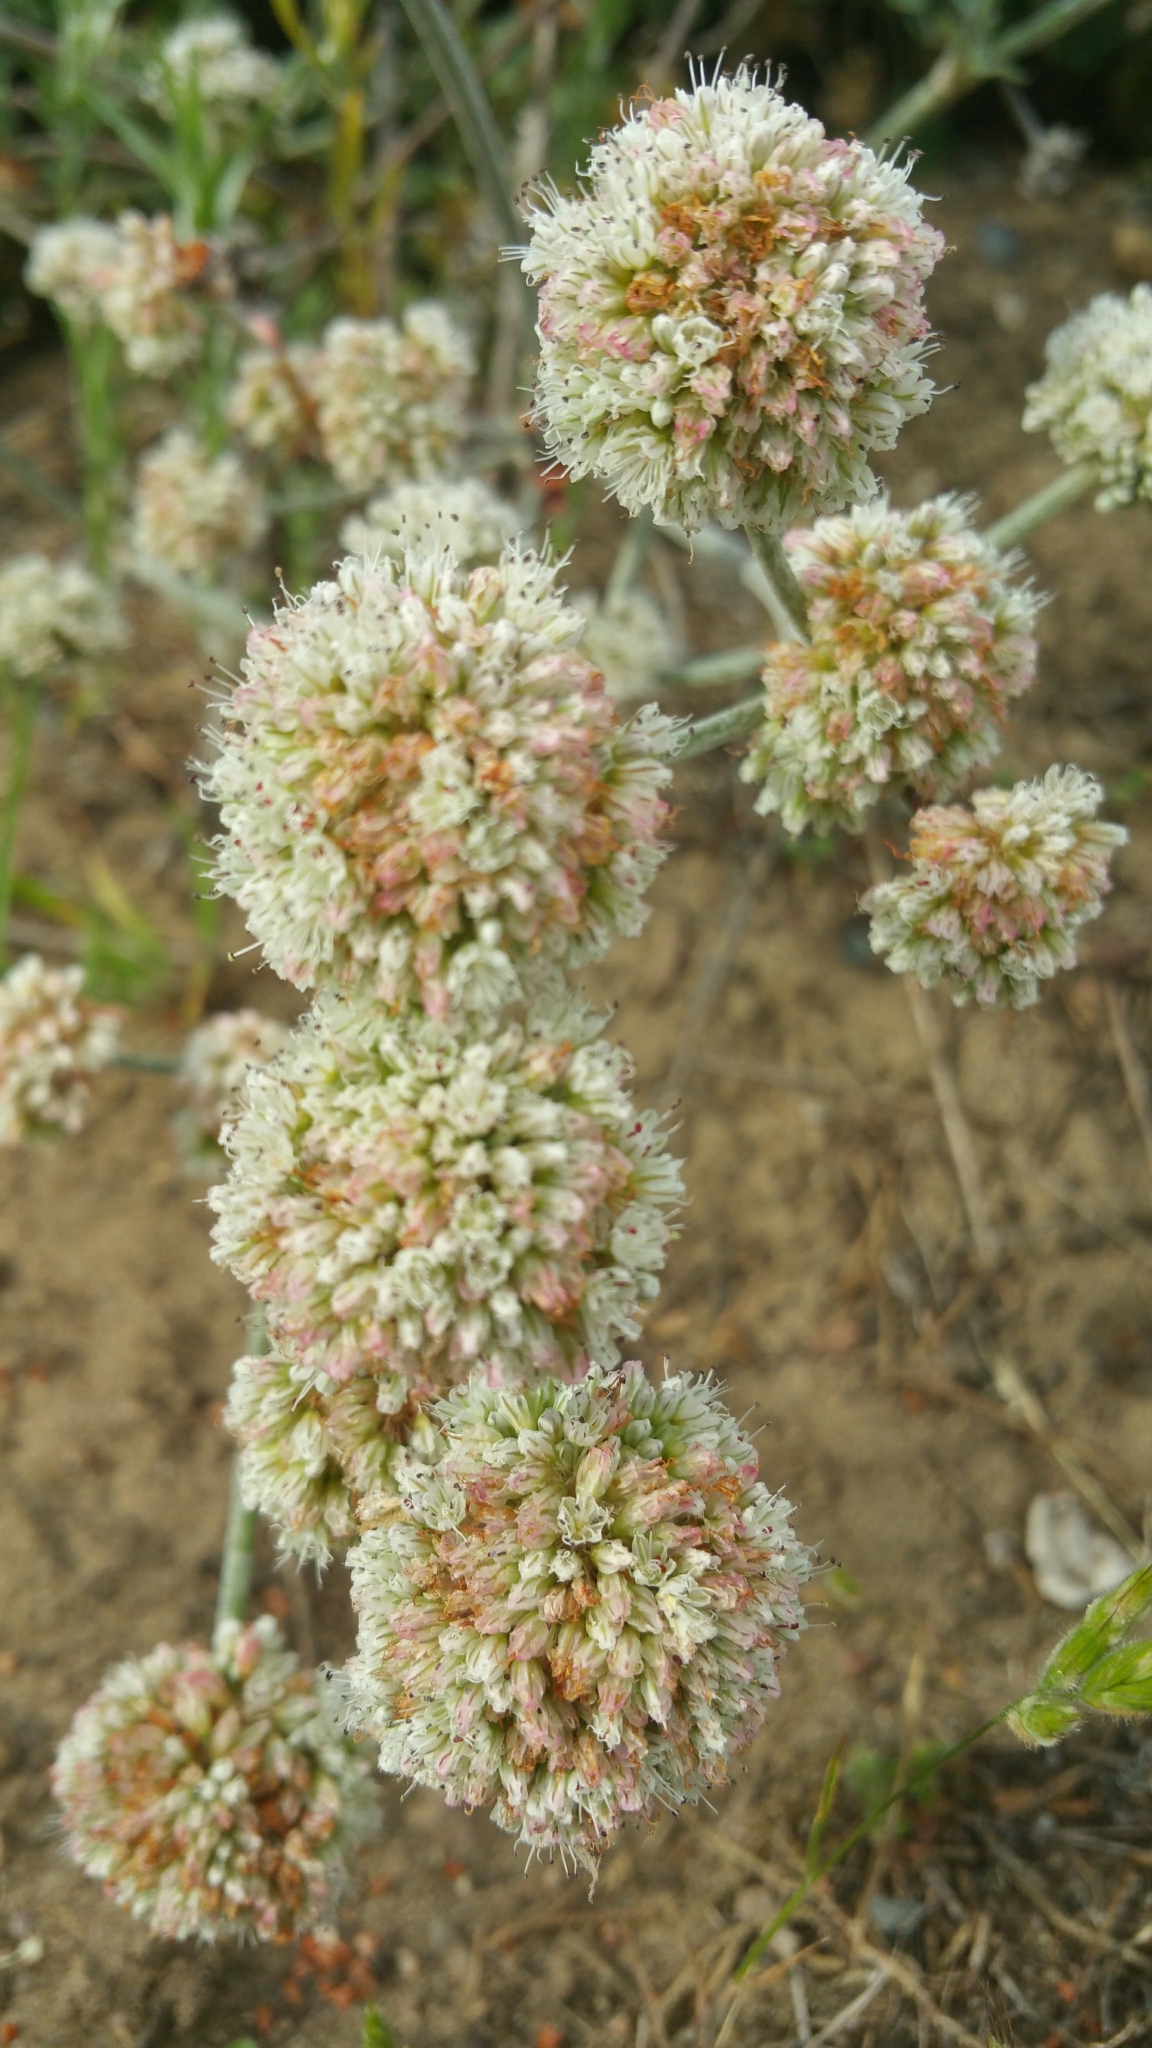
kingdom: Plantae
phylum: Tracheophyta
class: Magnoliopsida
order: Caryophyllales
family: Polygonaceae
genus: Eriogonum
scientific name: Eriogonum latifolium
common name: Seaside wild buckwheat
